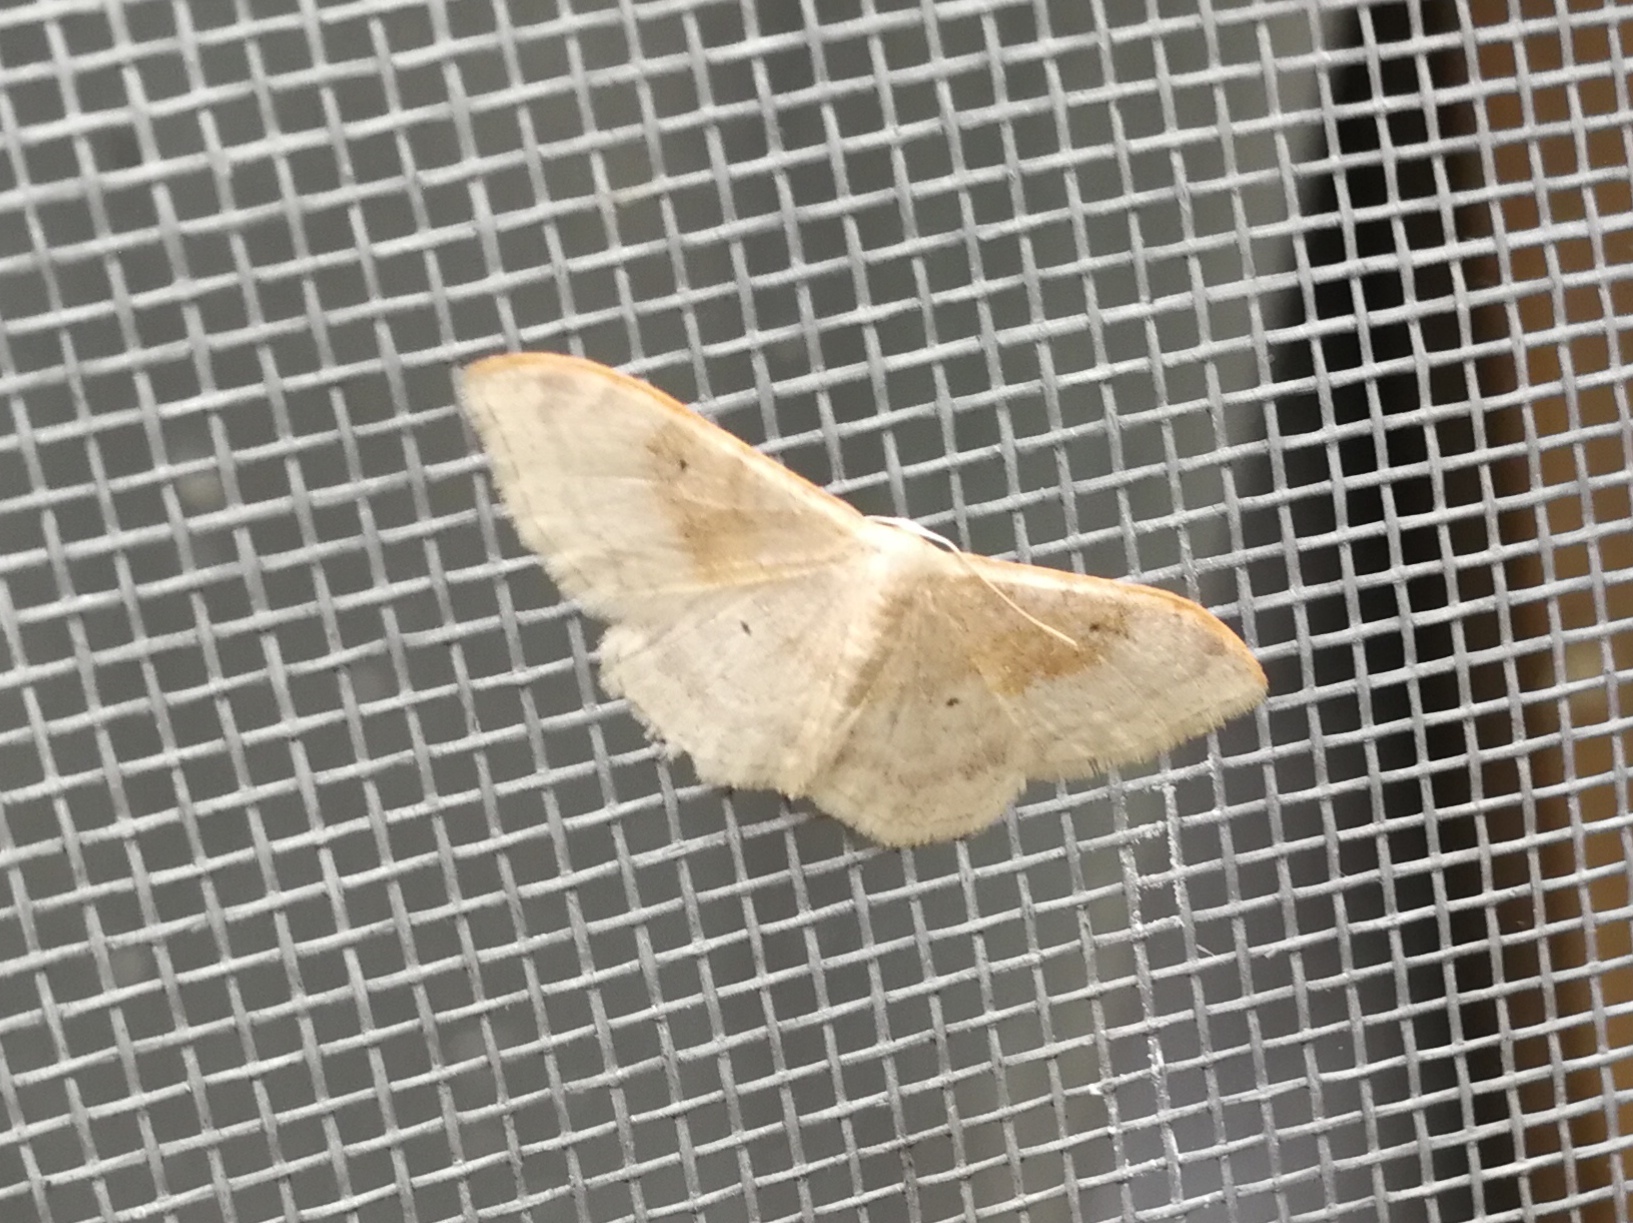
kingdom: Animalia
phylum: Arthropoda
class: Insecta
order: Lepidoptera
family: Geometridae
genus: Idaea
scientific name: Idaea degeneraria
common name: Portland ribbon wave
